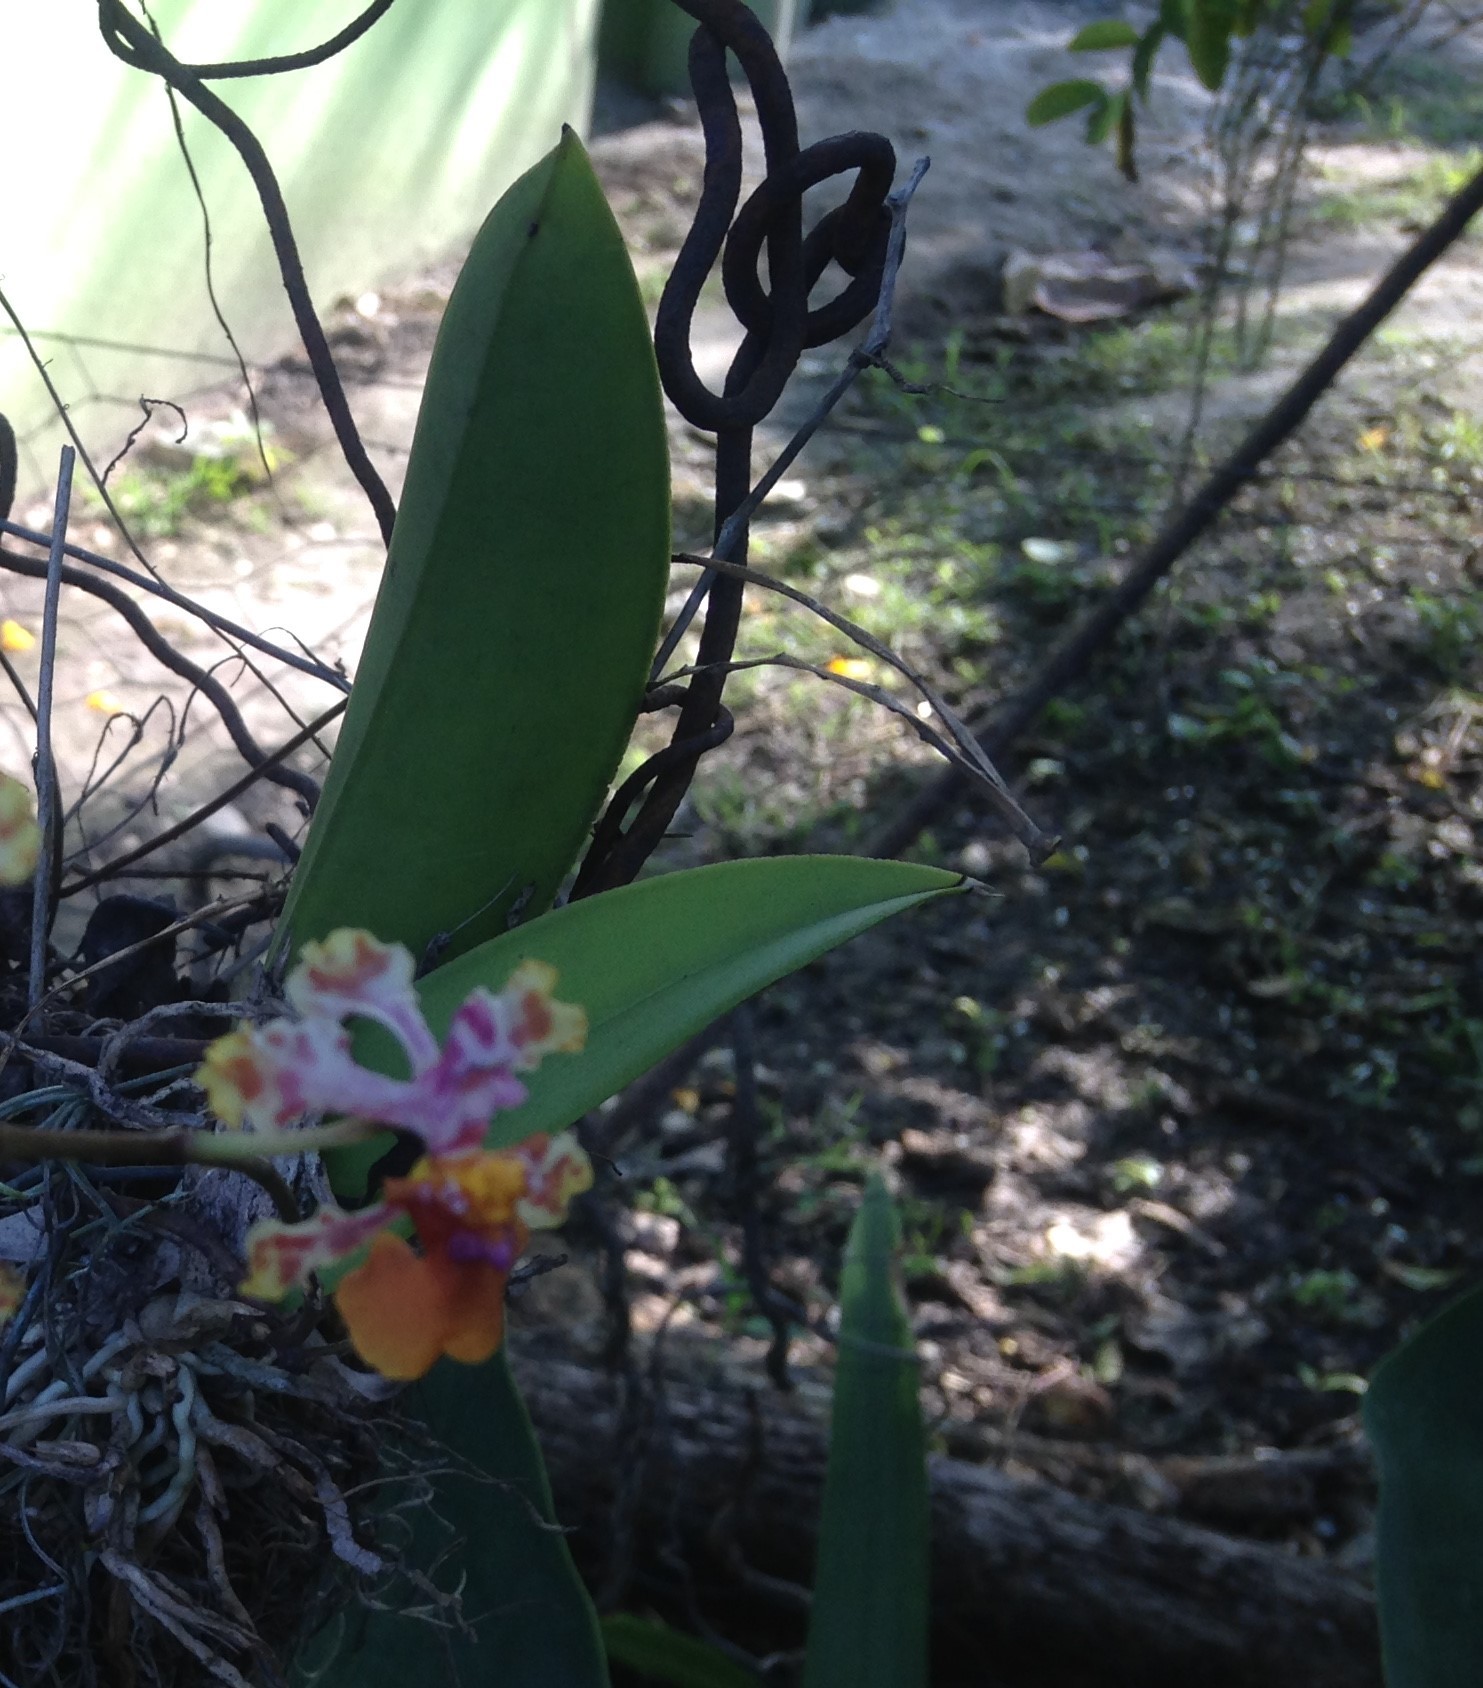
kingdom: Plantae
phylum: Tracheophyta
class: Liliopsida
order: Asparagales
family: Orchidaceae
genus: Trichocentrum
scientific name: Trichocentrum cosymbephorum
